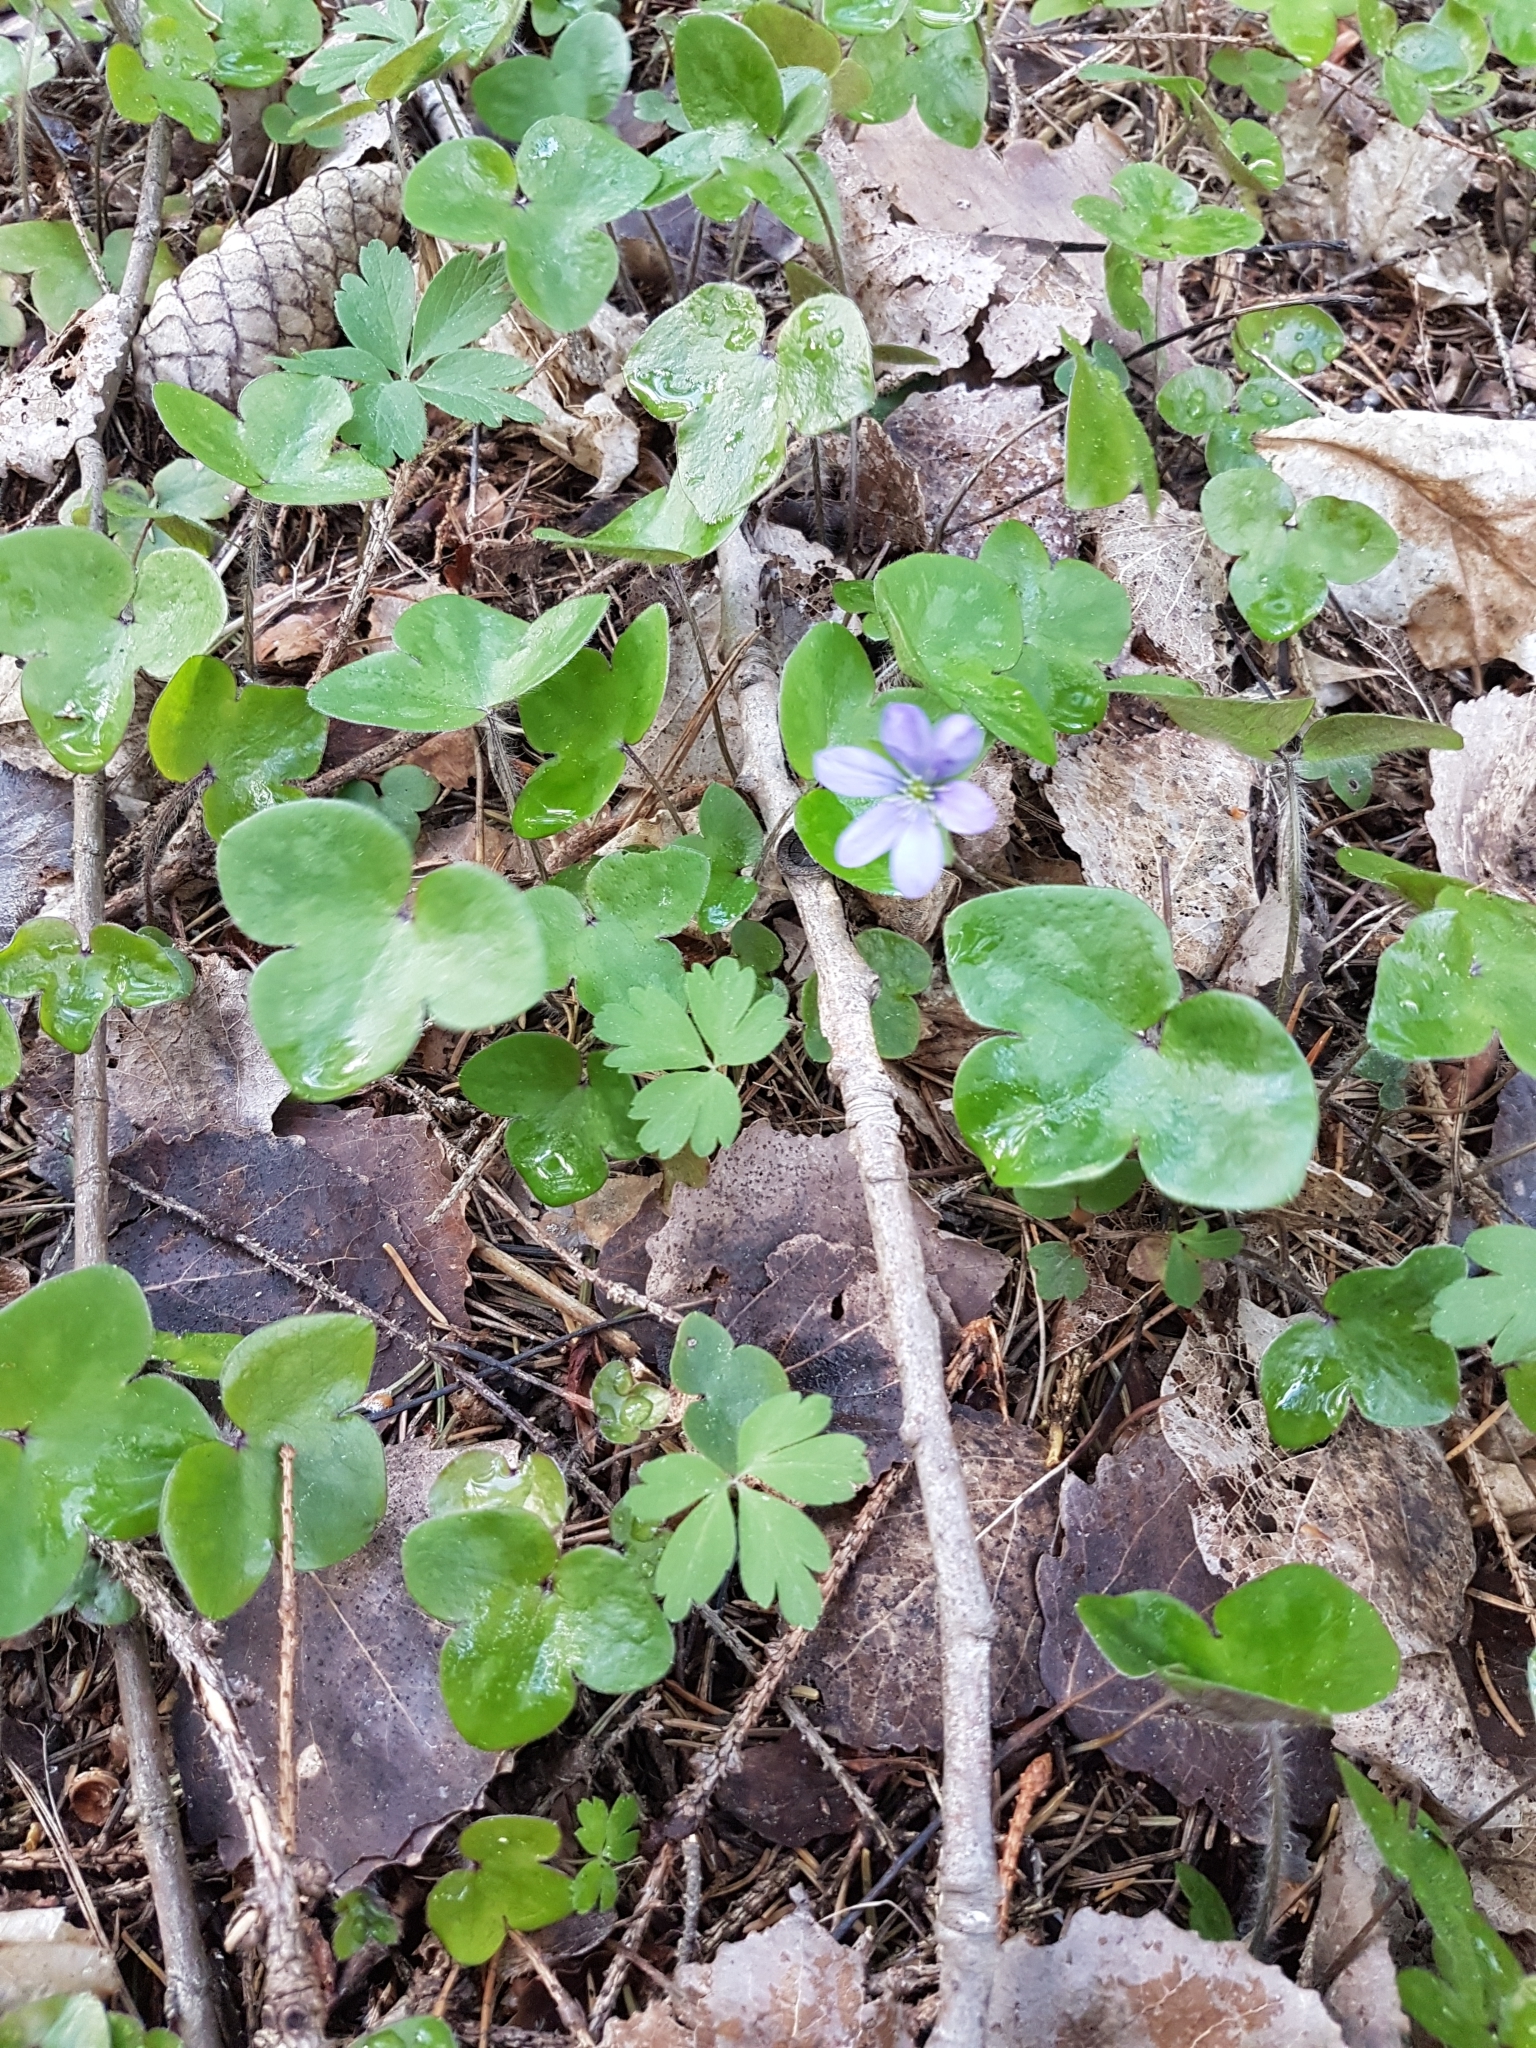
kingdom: Plantae
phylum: Tracheophyta
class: Magnoliopsida
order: Ranunculales
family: Ranunculaceae
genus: Hepatica
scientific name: Hepatica nobilis
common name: Liverleaf
